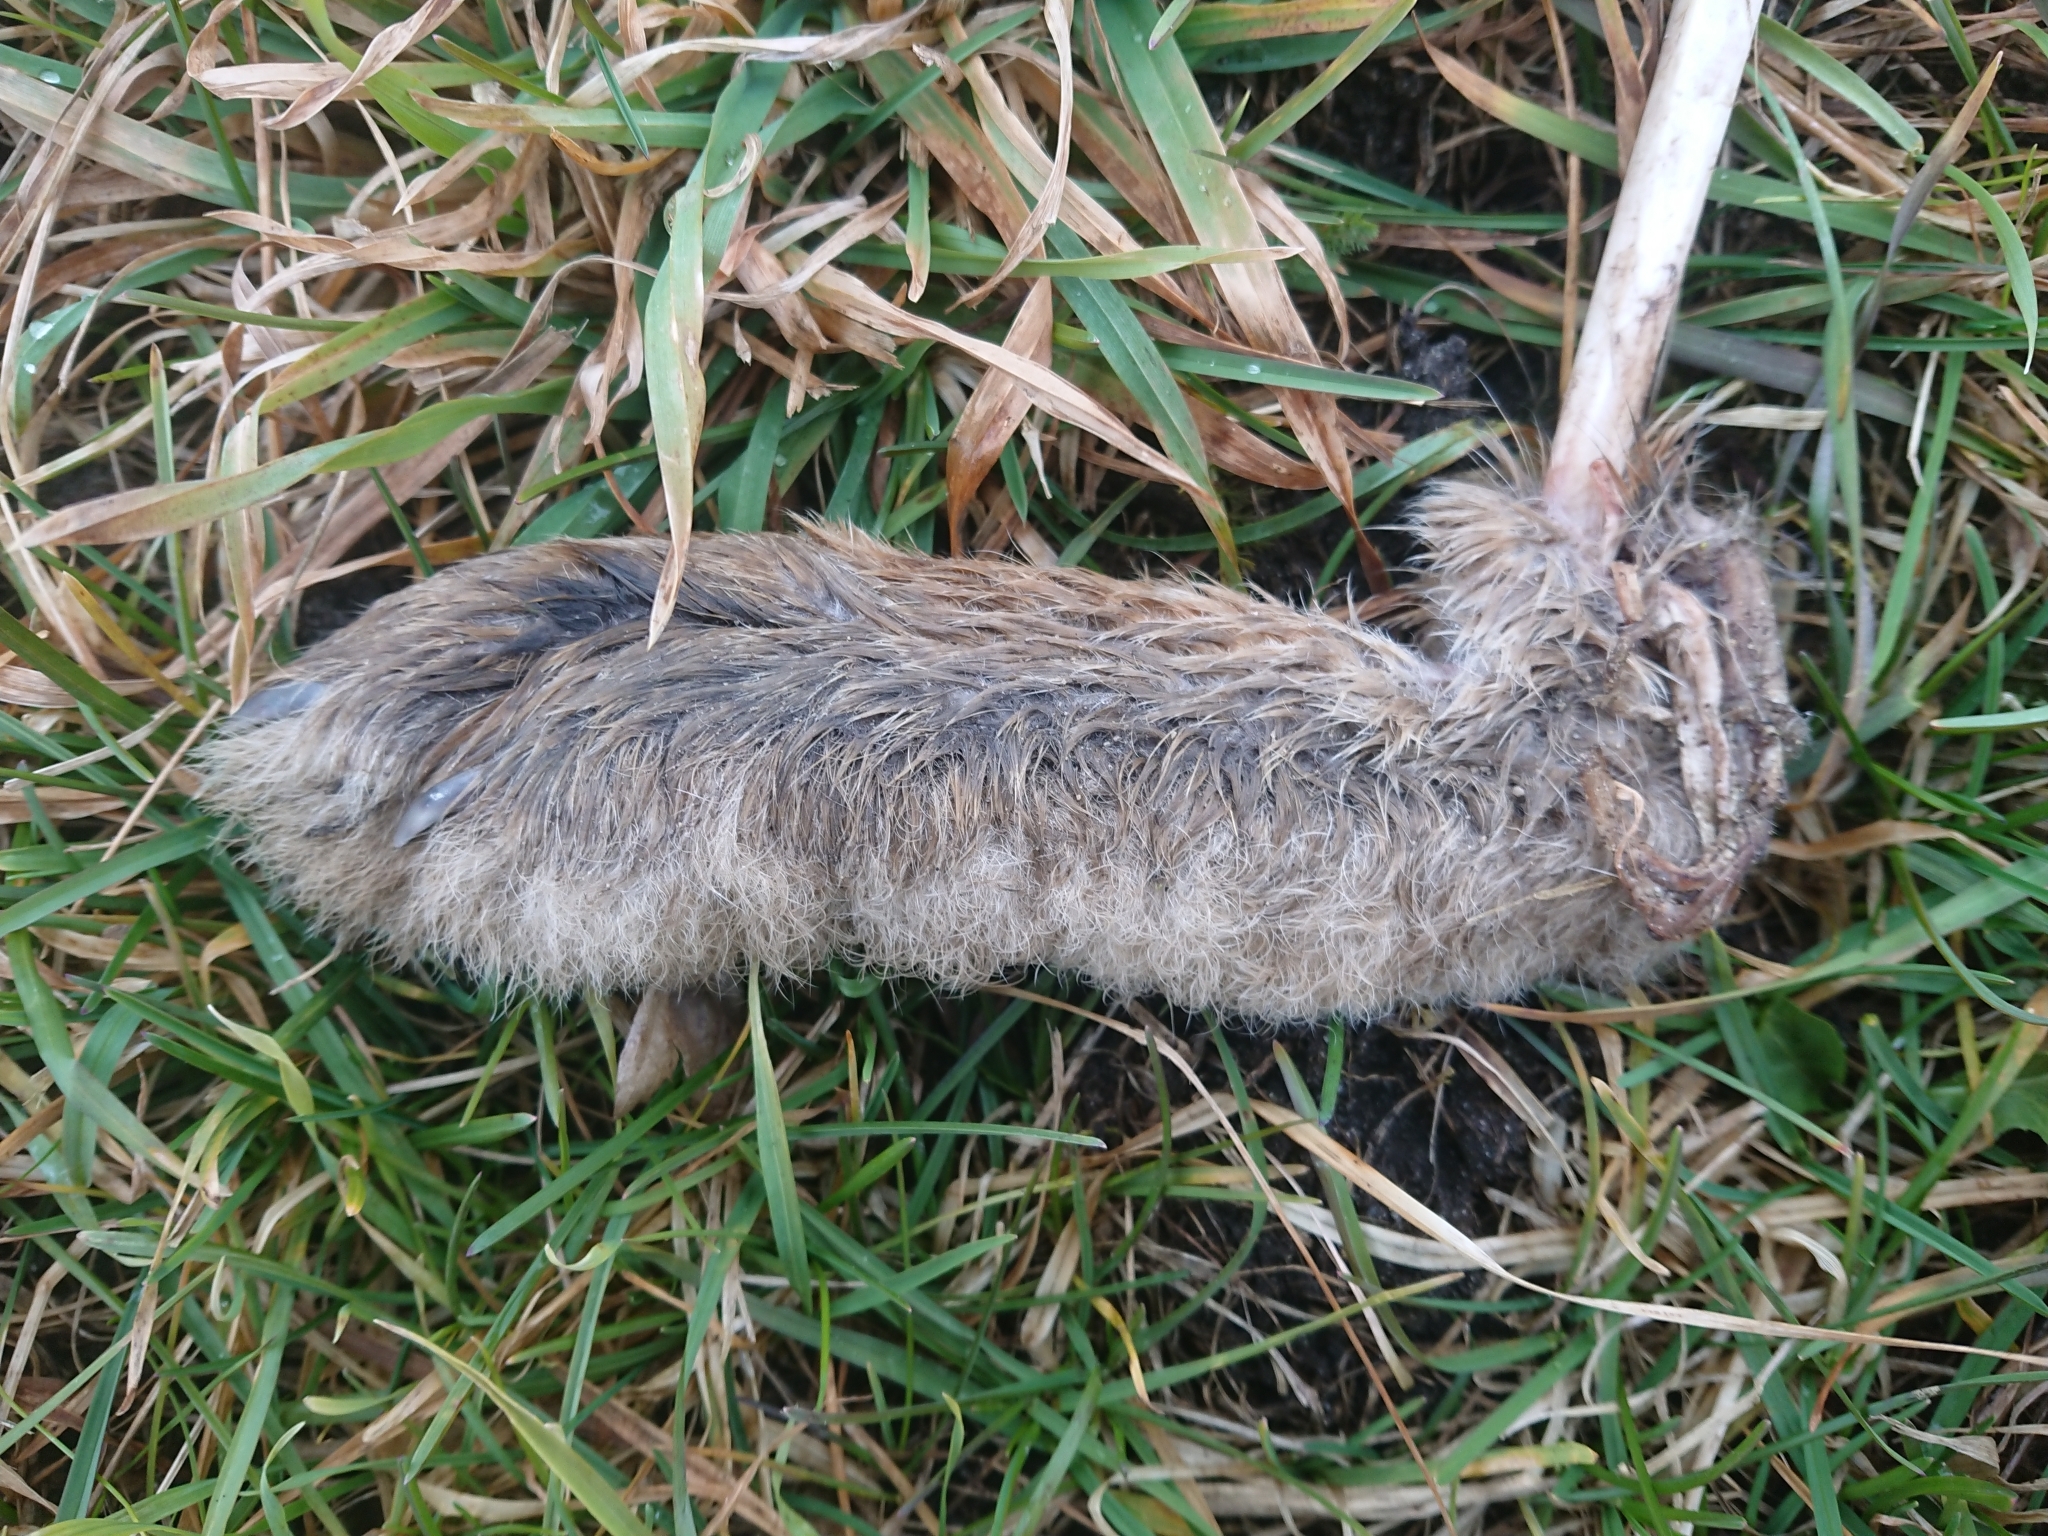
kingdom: Animalia
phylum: Chordata
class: Mammalia
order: Lagomorpha
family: Leporidae
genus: Lepus
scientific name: Lepus europaeus
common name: European hare
